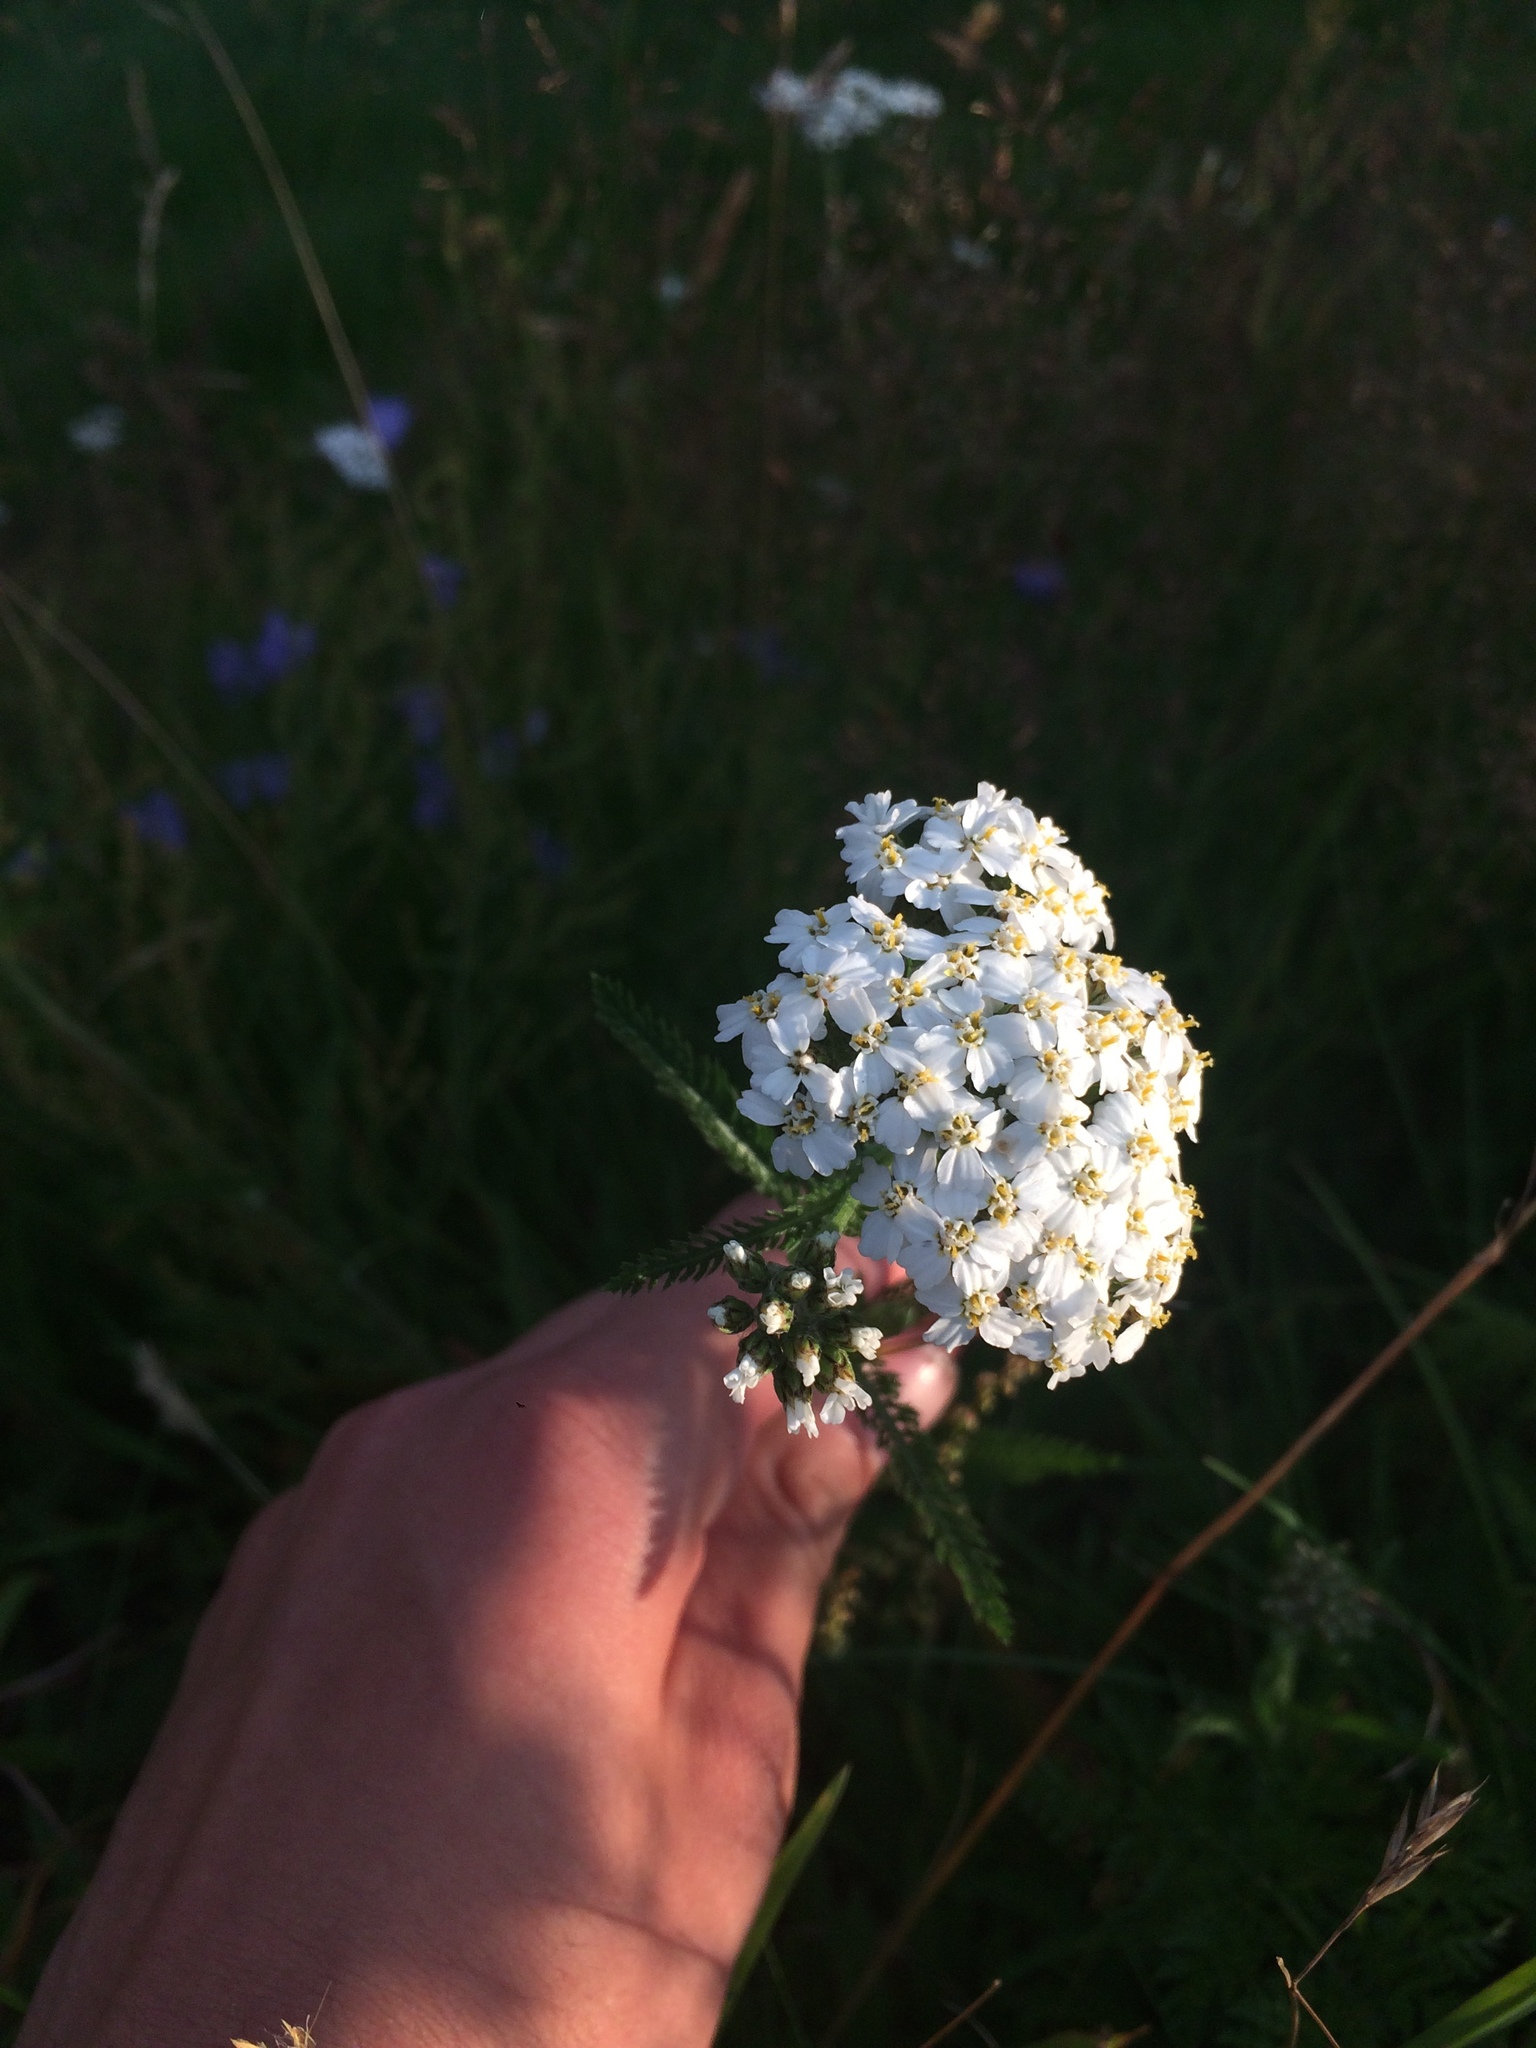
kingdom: Plantae
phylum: Tracheophyta
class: Magnoliopsida
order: Asterales
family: Asteraceae
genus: Achillea
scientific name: Achillea millefolium
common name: Yarrow
